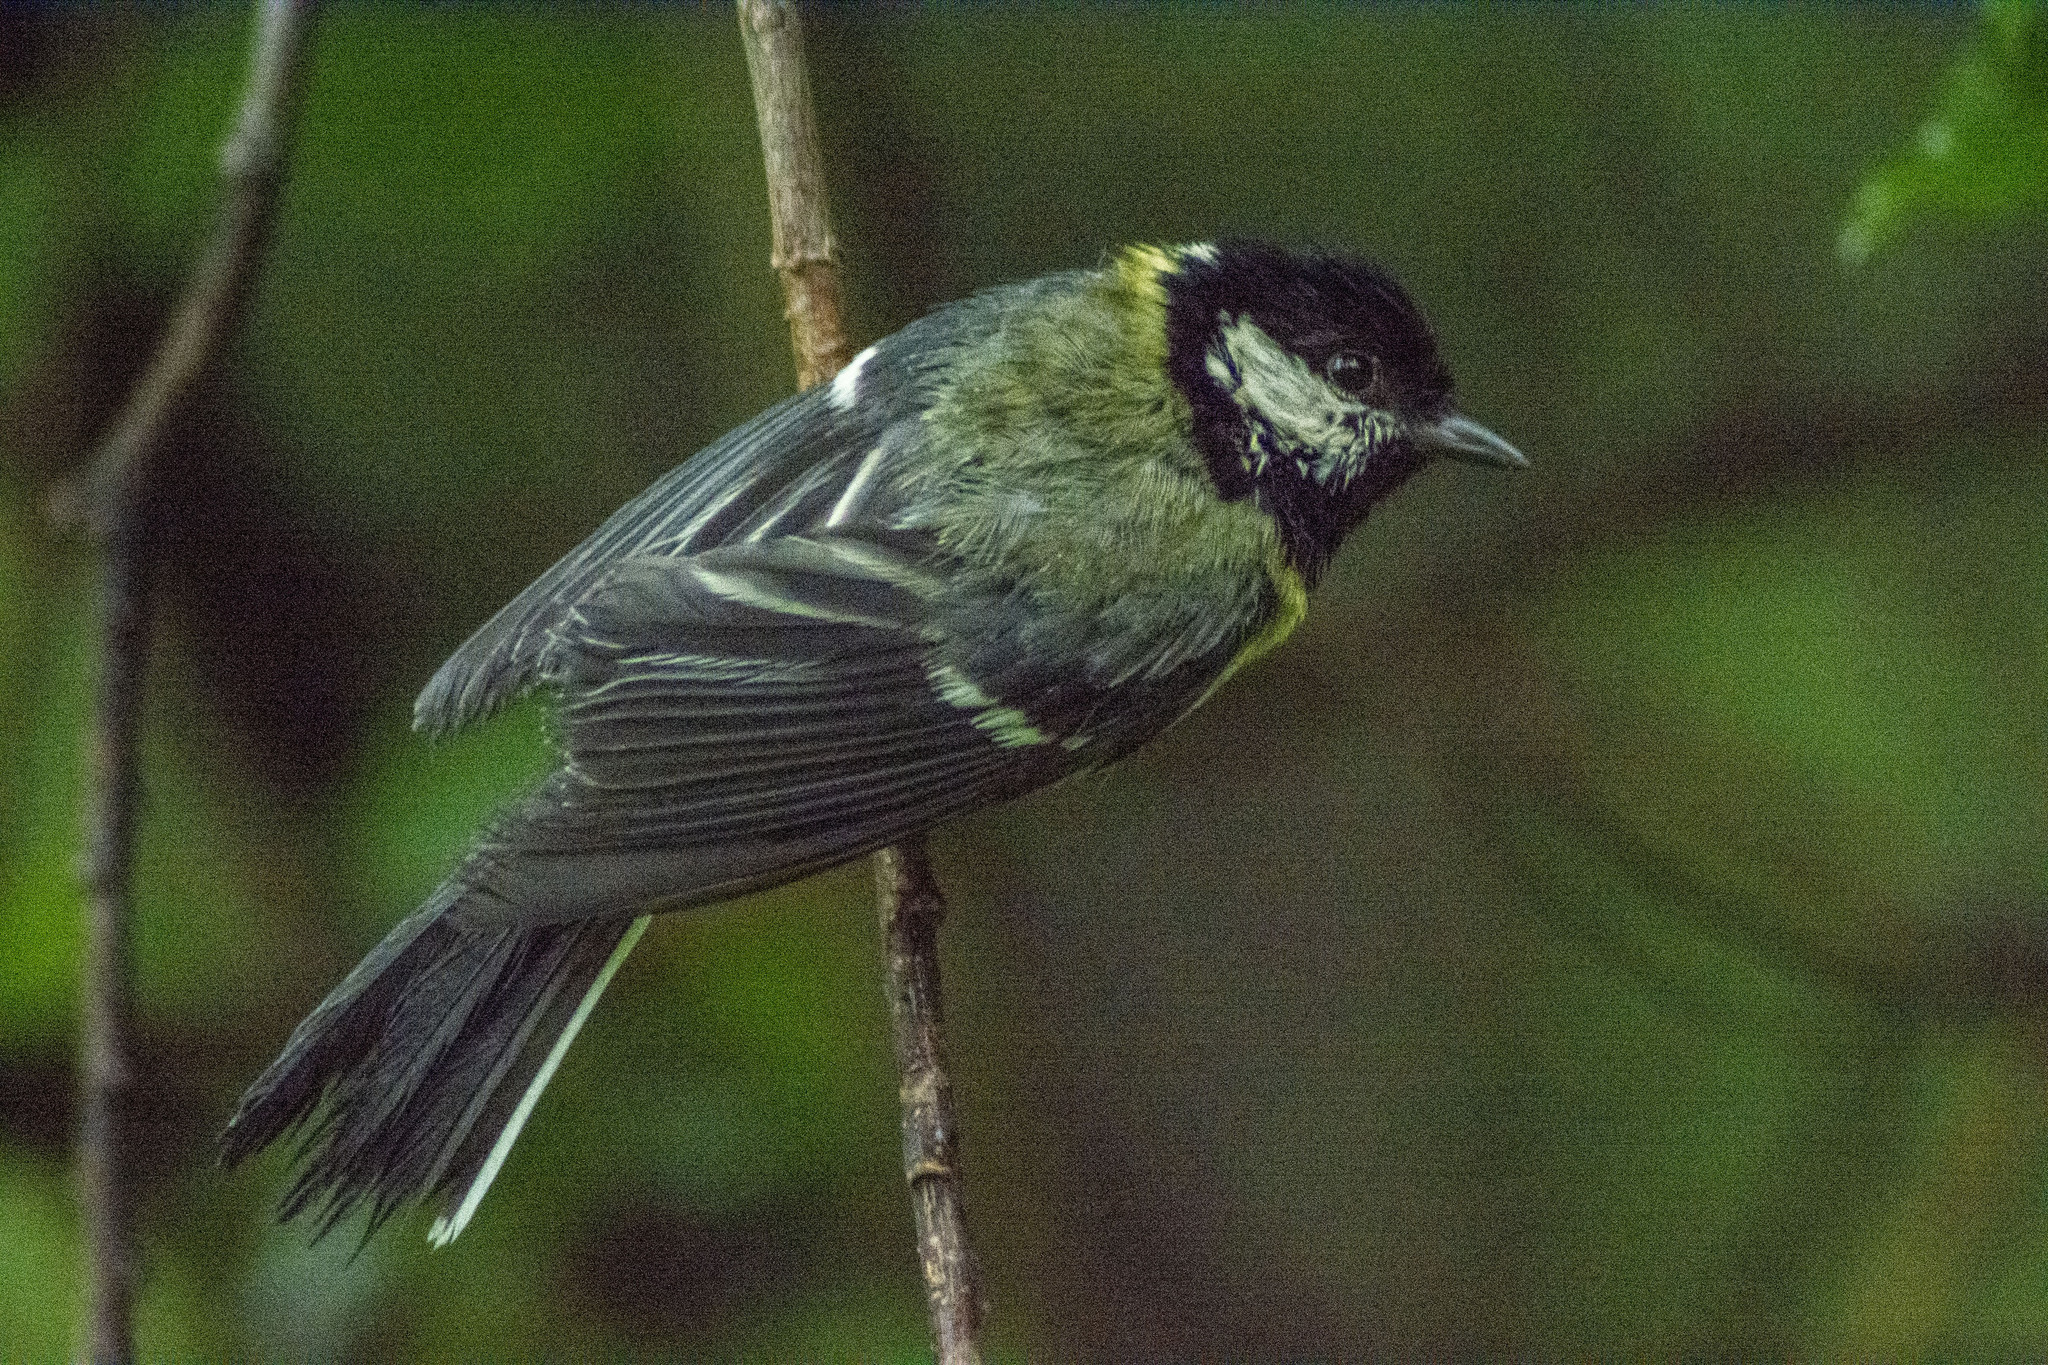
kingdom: Animalia
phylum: Chordata
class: Aves
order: Passeriformes
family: Paridae
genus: Parus
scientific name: Parus major
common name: Great tit
